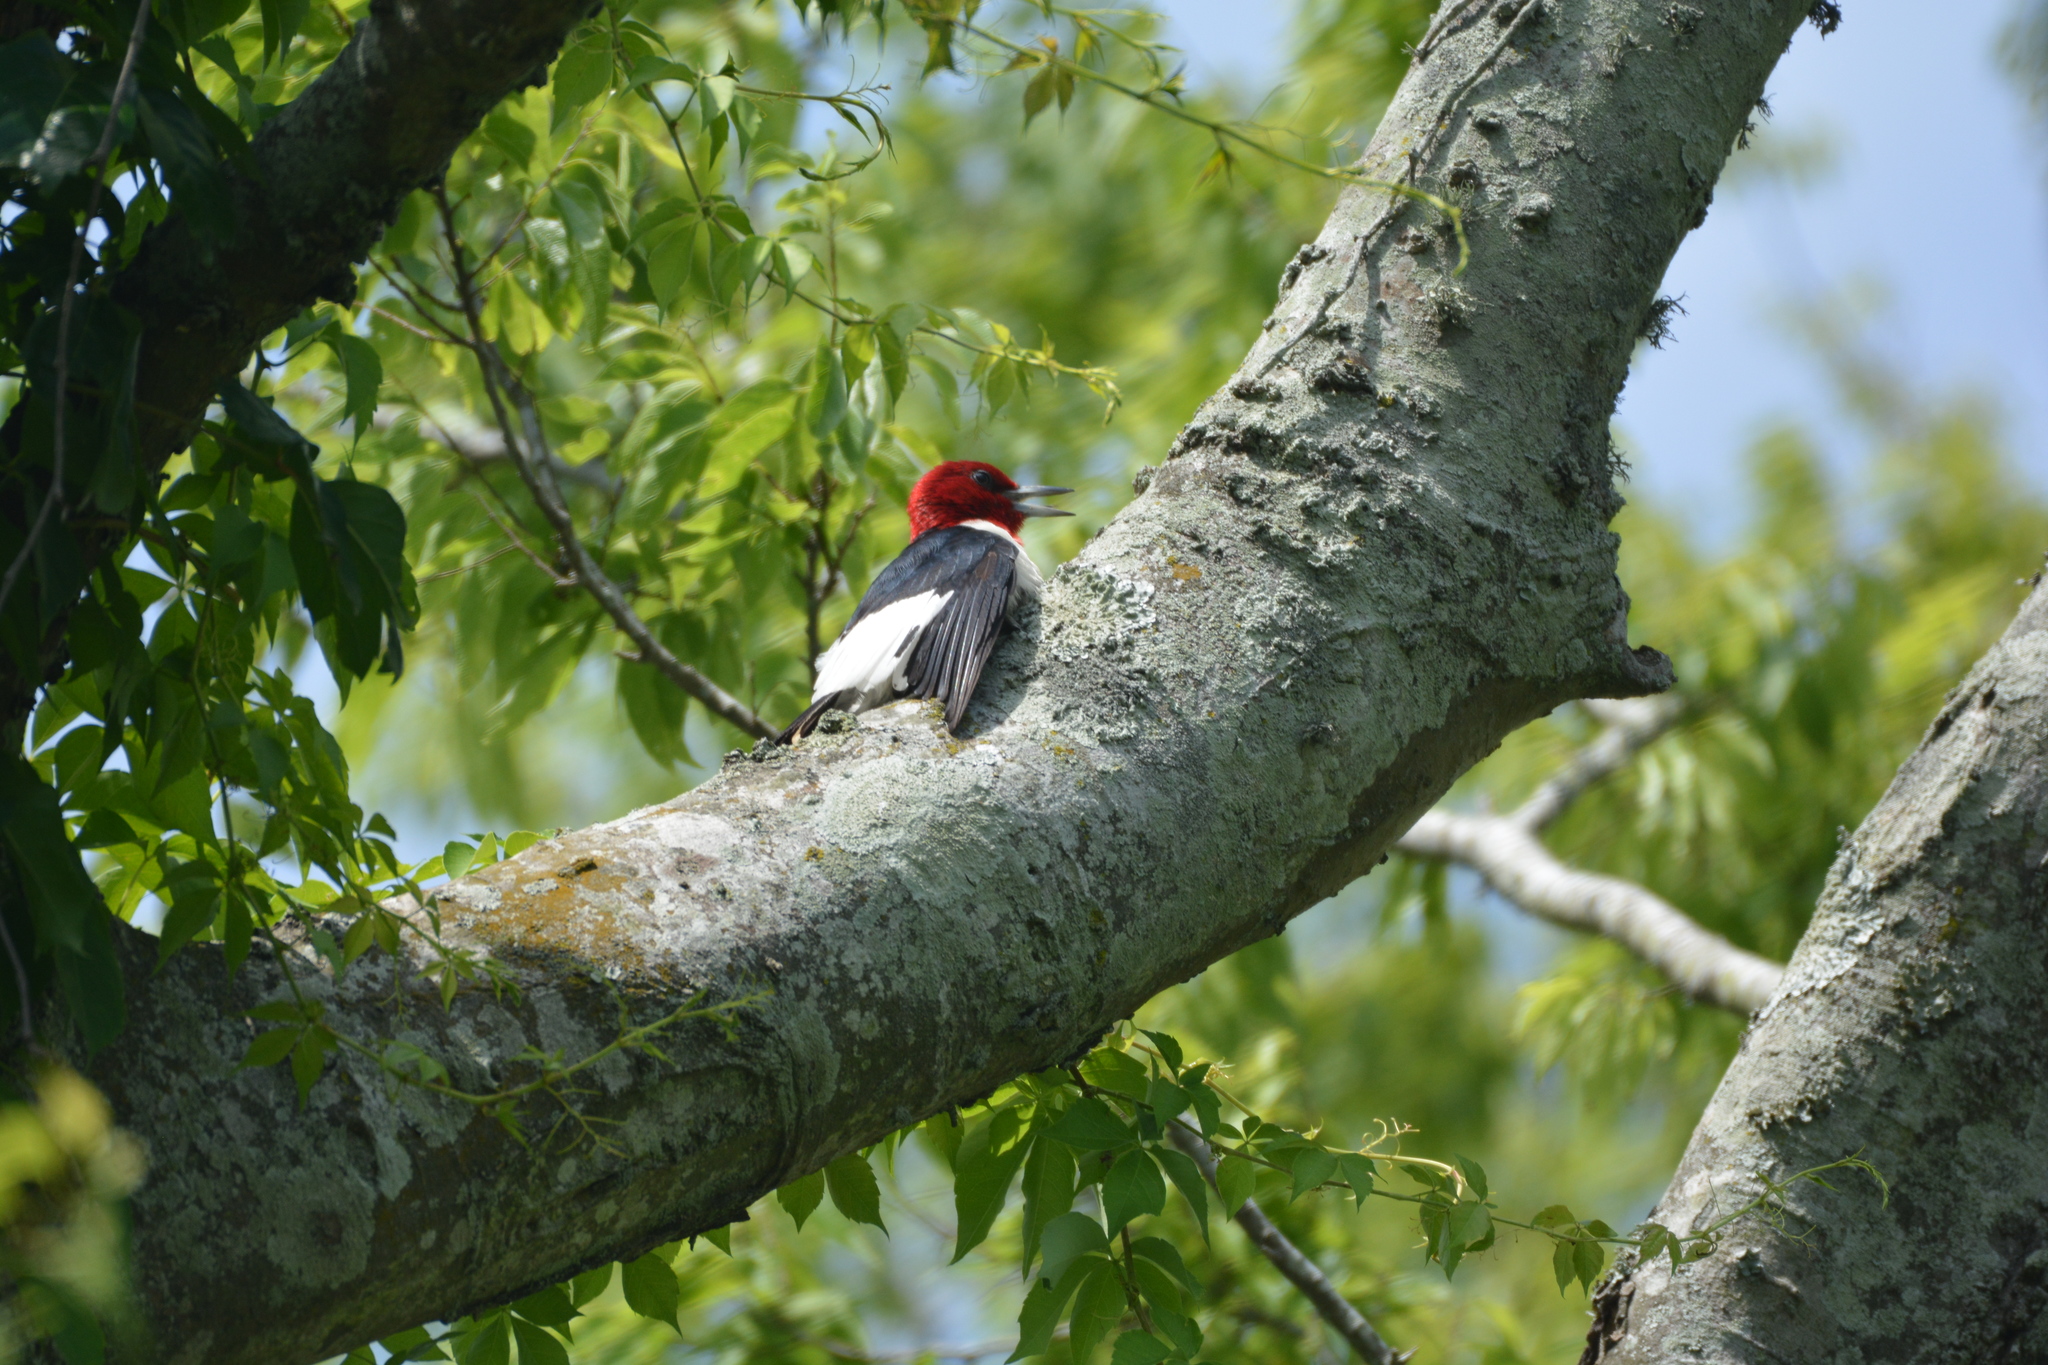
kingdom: Animalia
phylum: Chordata
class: Aves
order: Piciformes
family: Picidae
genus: Melanerpes
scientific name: Melanerpes erythrocephalus
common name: Red-headed woodpecker
